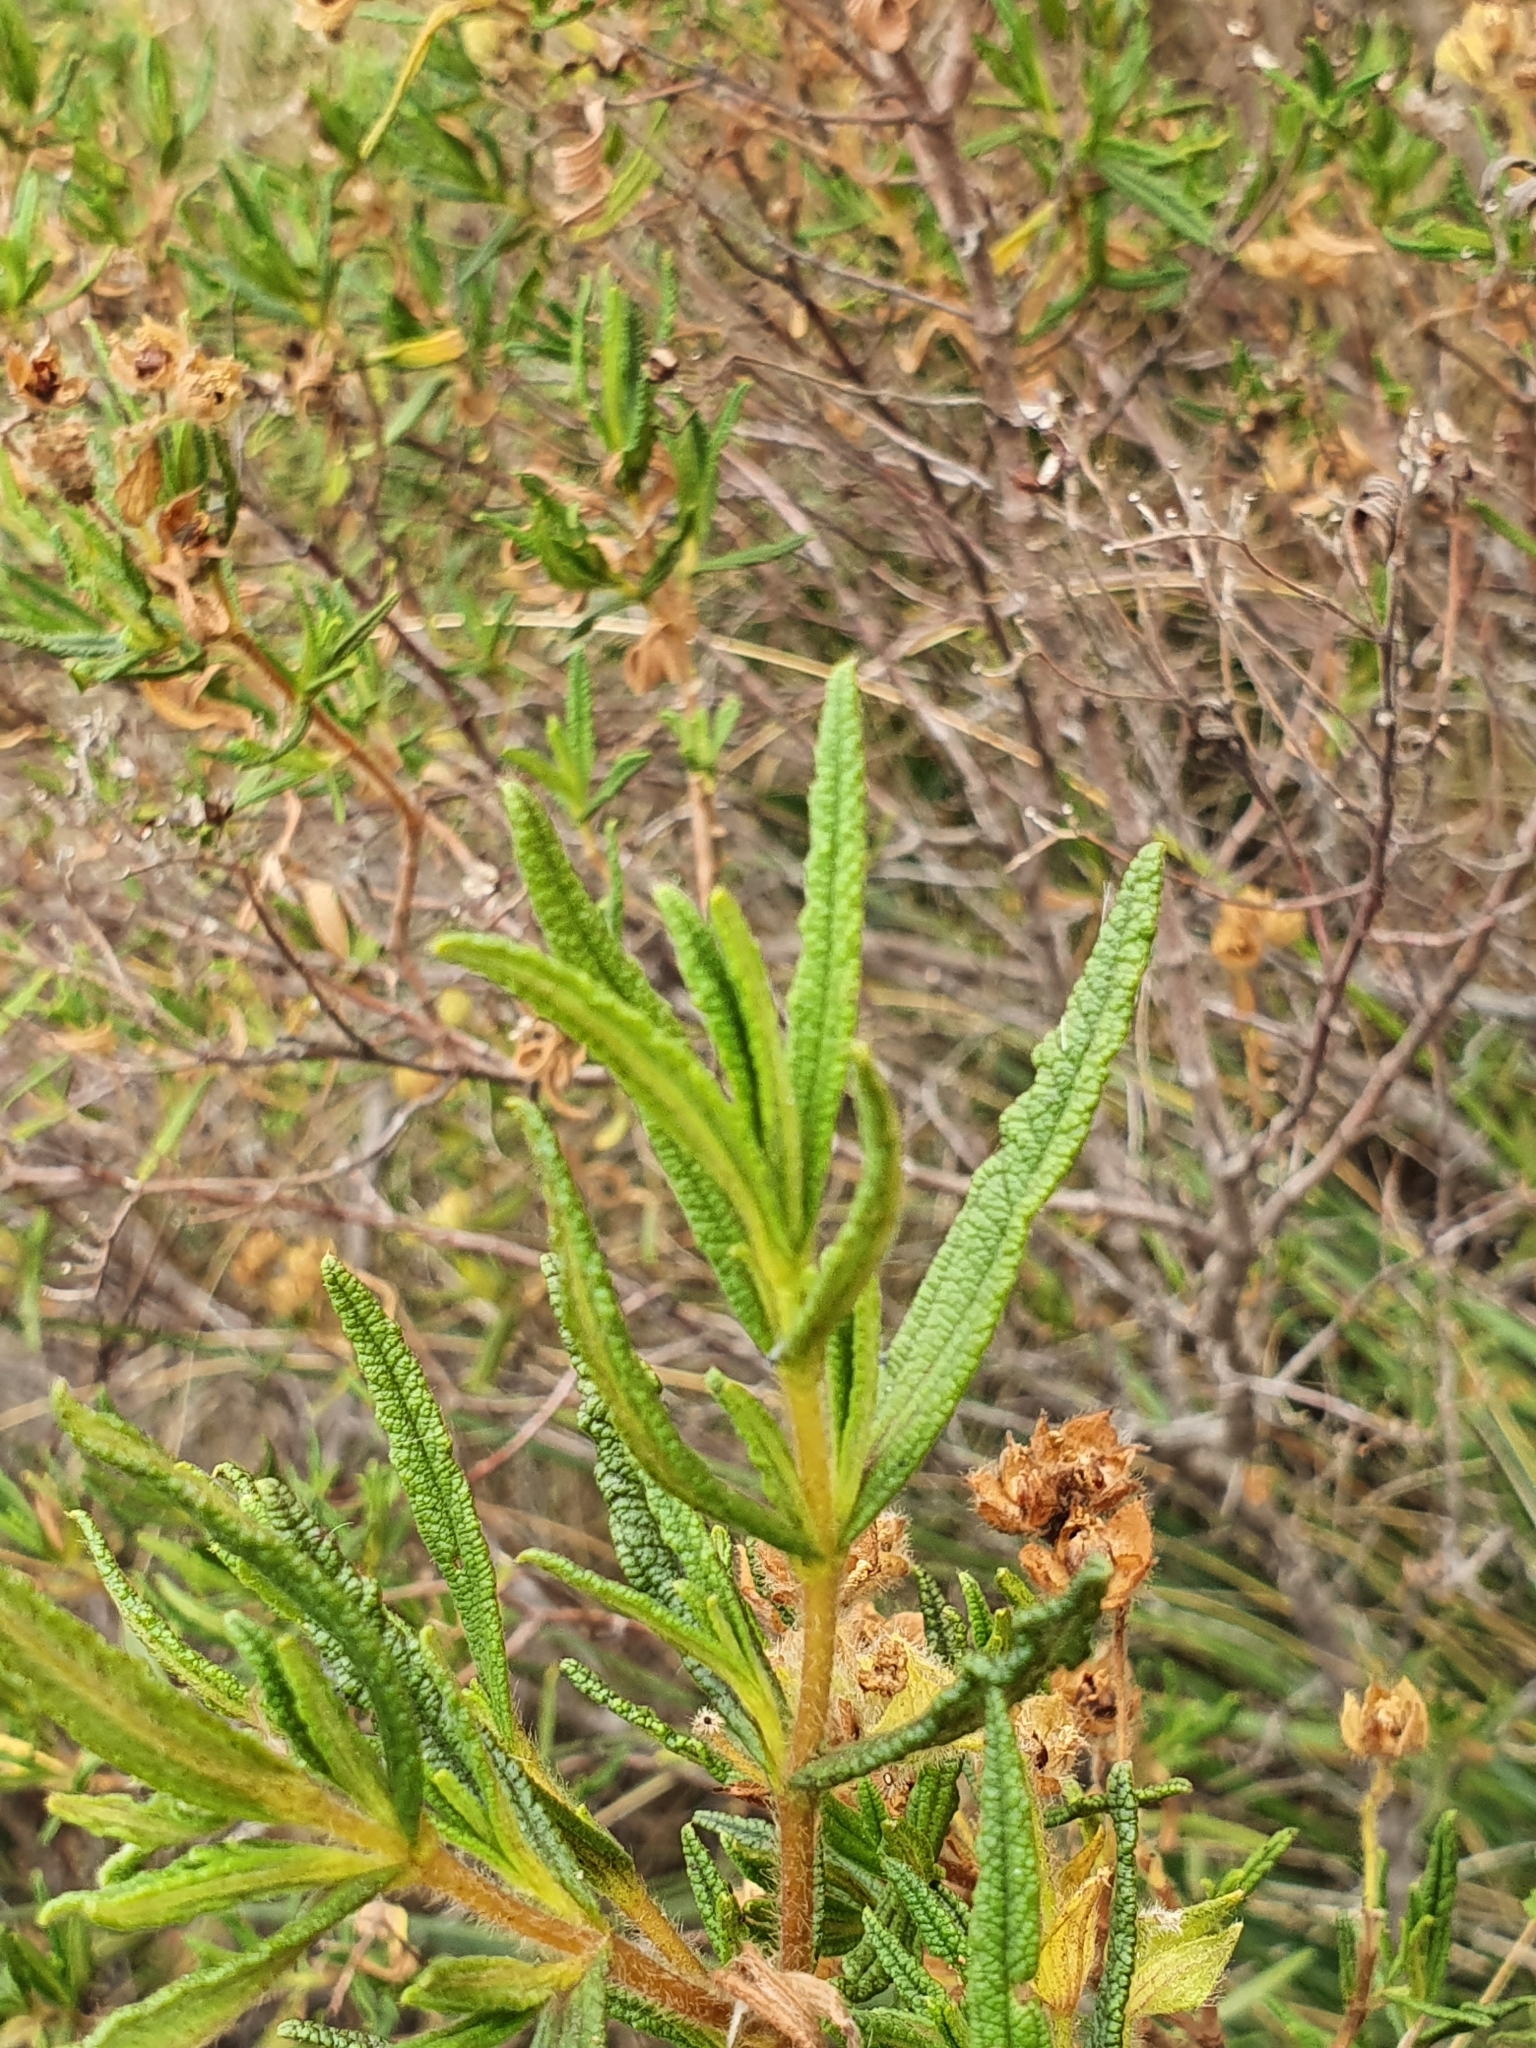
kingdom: Plantae
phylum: Tracheophyta
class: Magnoliopsida
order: Malvales
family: Cistaceae
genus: Cistus
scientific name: Cistus monspeliensis
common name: Montpelier cistus
